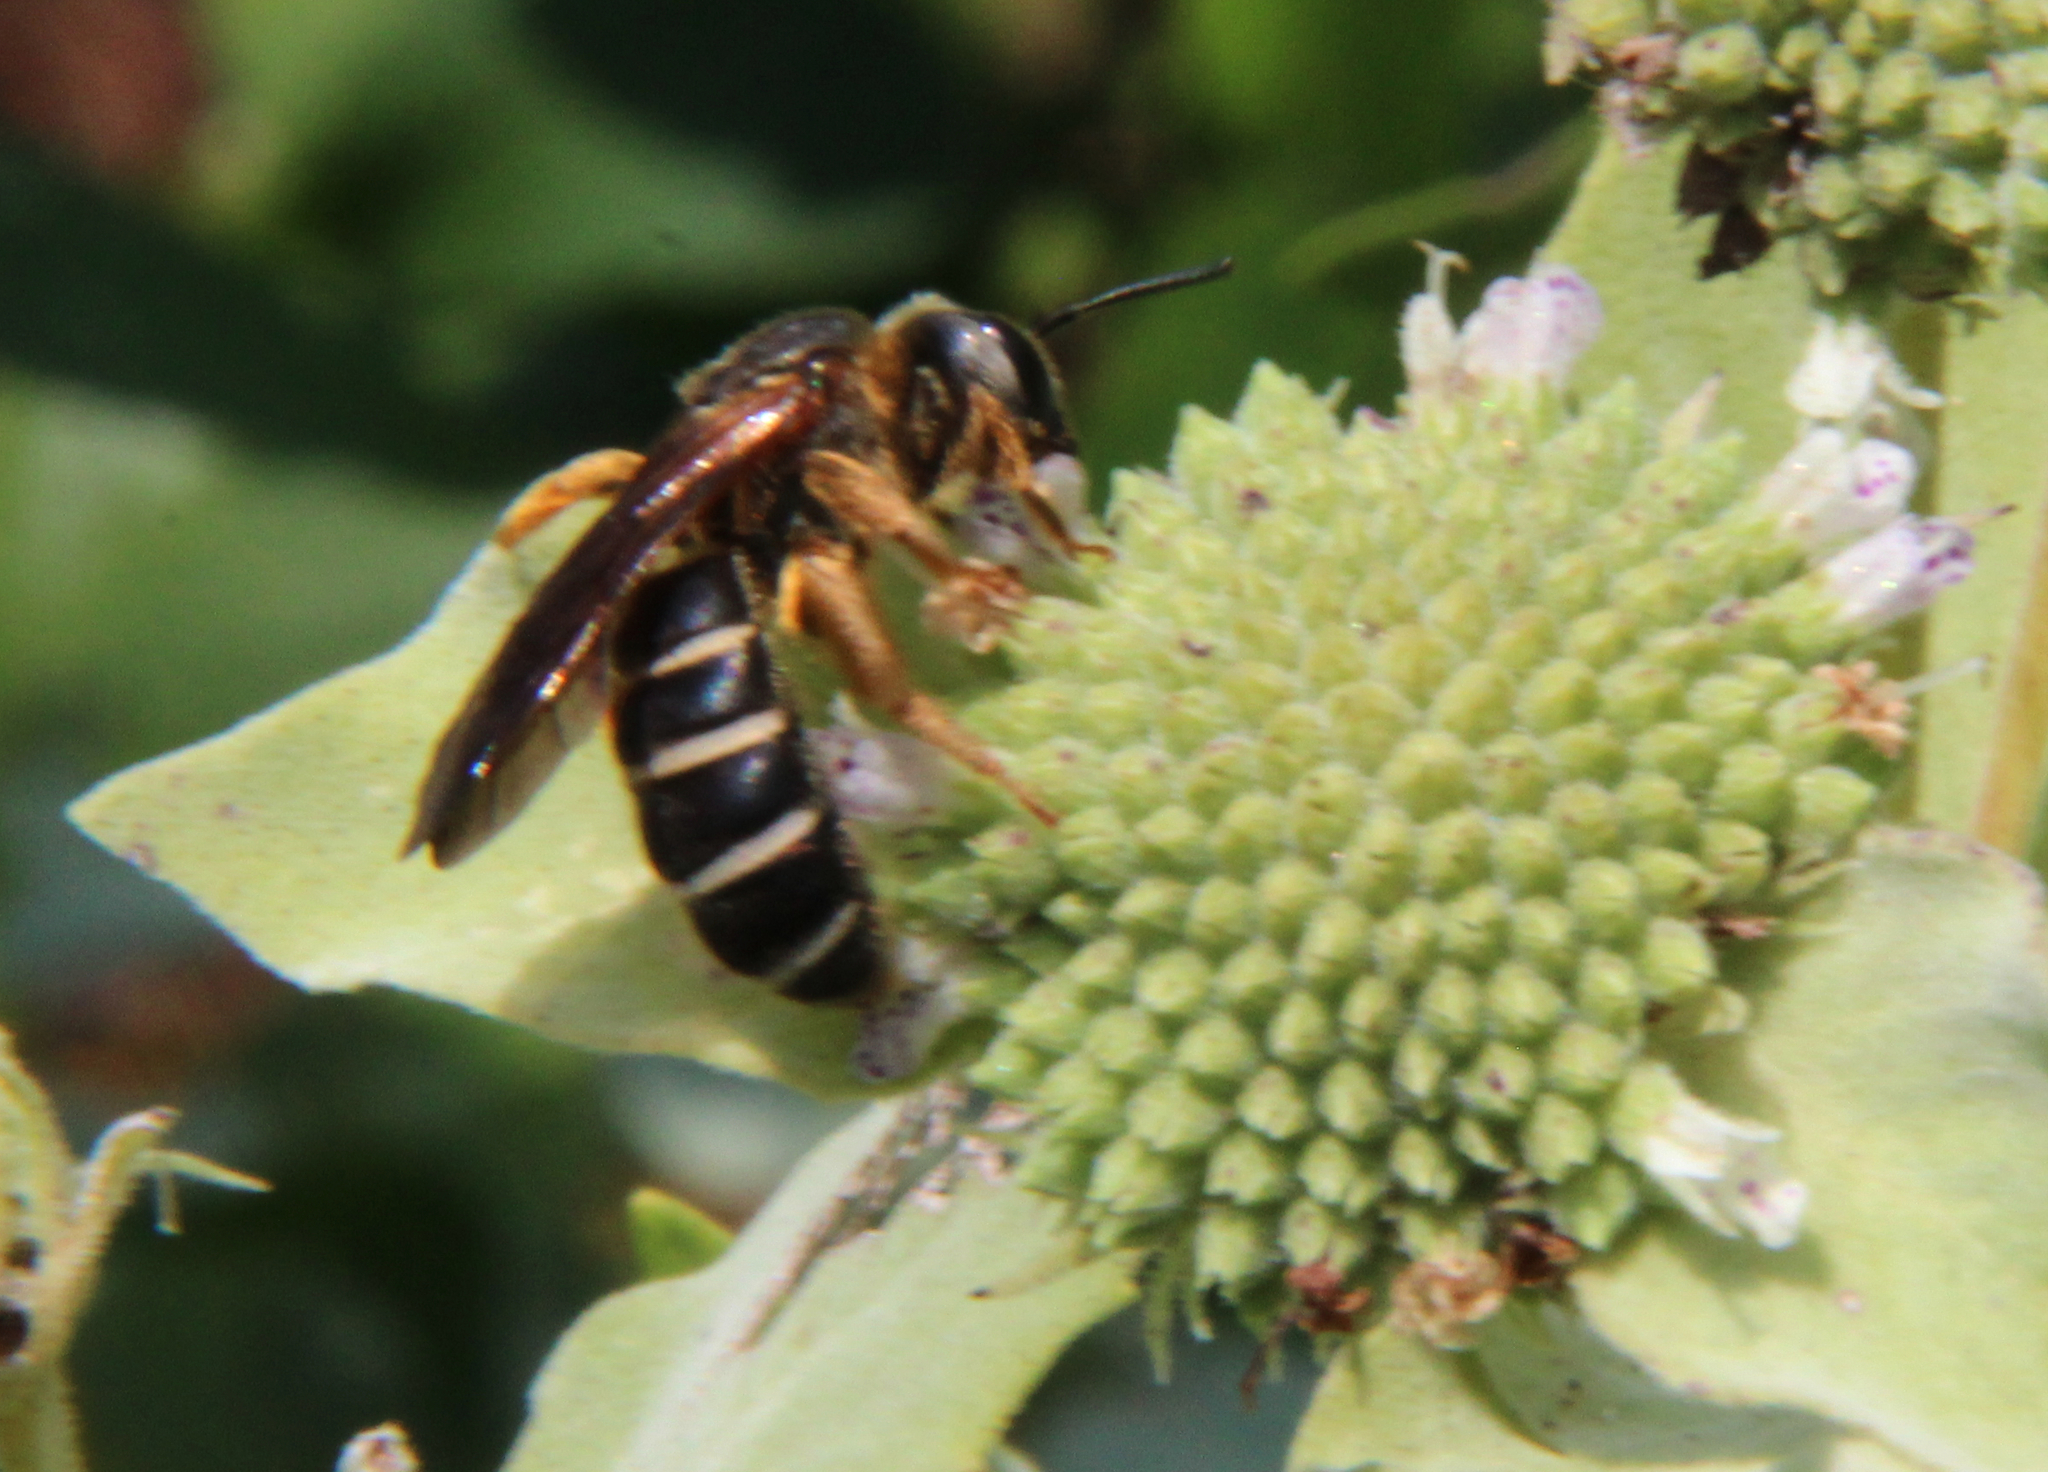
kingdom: Animalia
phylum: Arthropoda
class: Insecta
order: Hymenoptera
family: Halictidae
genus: Halictus
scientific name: Halictus parallelus
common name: Parallel-striped sweat bee
